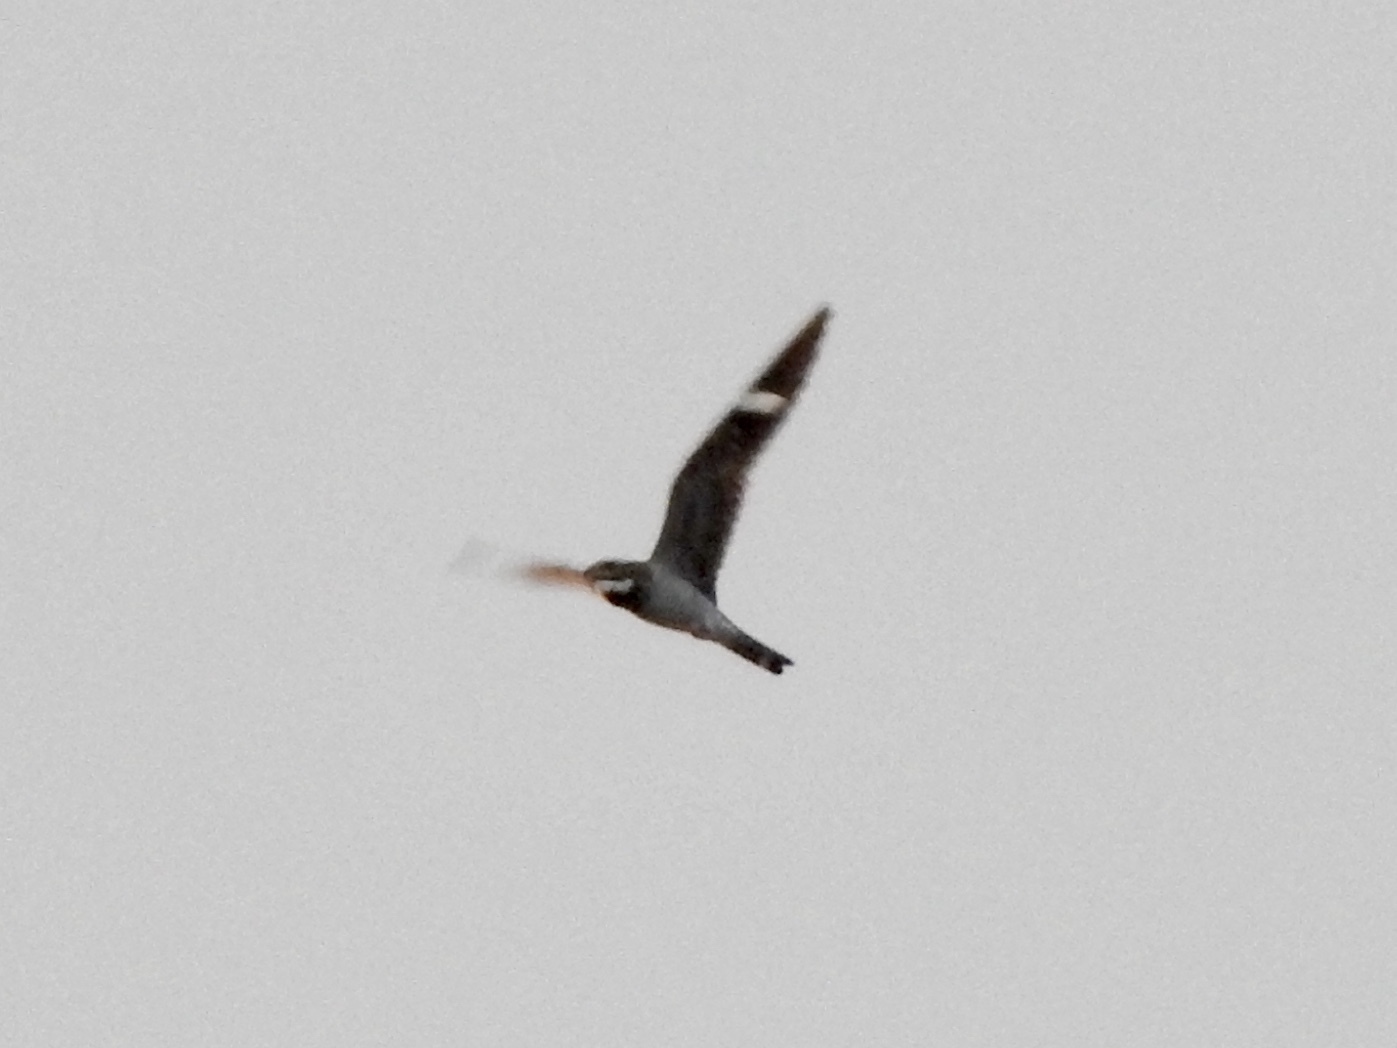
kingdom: Animalia
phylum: Chordata
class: Aves
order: Caprimulgiformes
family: Caprimulgidae
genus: Chordeiles
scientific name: Chordeiles minor
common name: Common nighthawk
